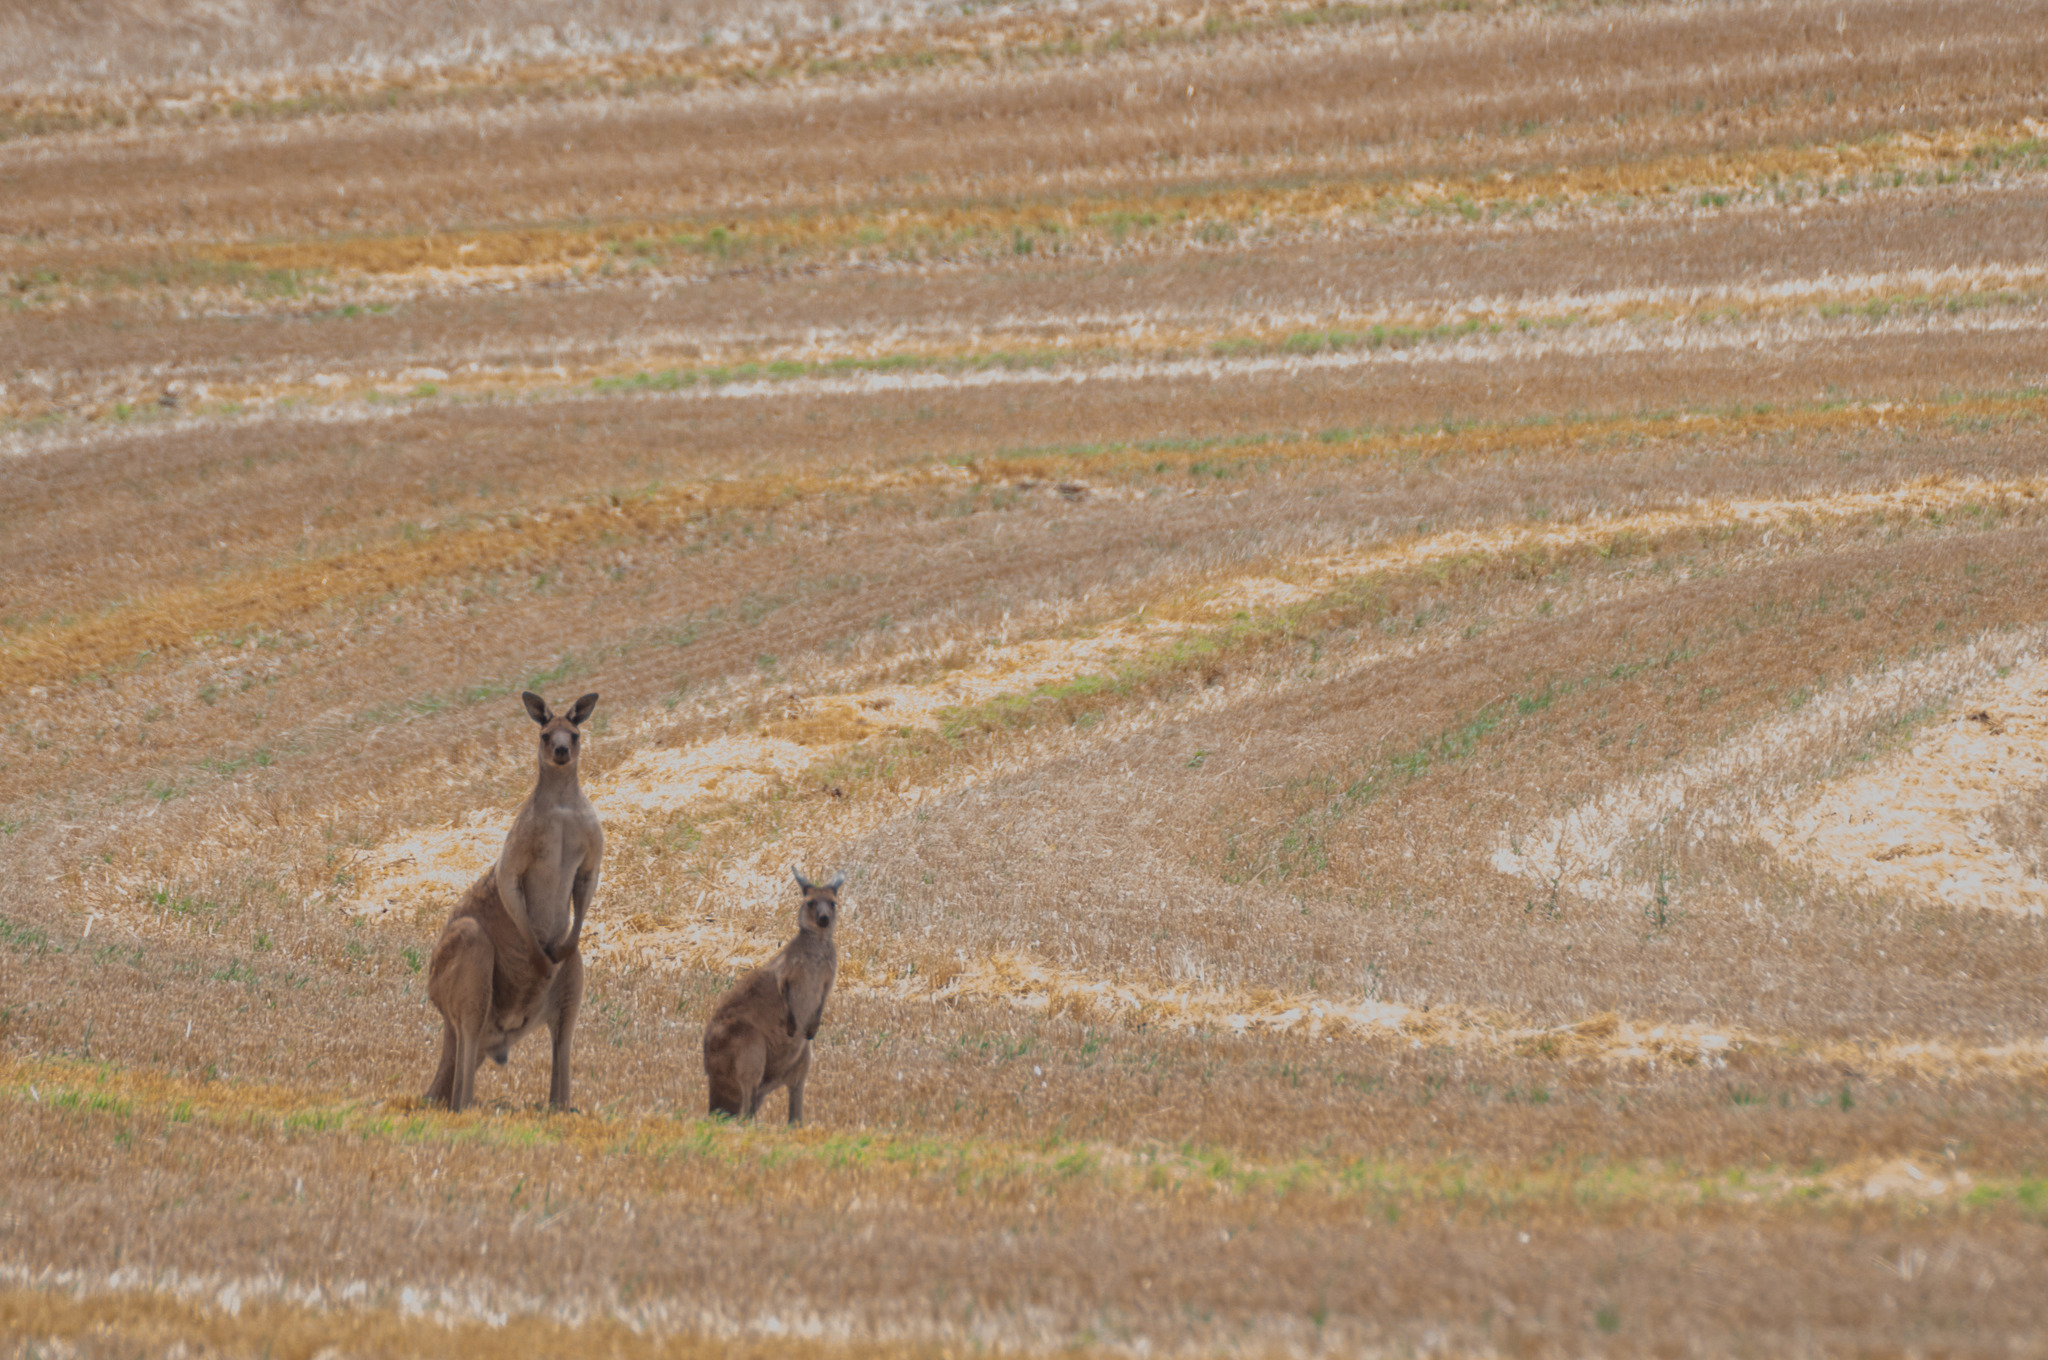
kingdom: Animalia
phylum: Chordata
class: Mammalia
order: Diprotodontia
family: Macropodidae
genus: Macropus
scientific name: Macropus fuliginosus
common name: Western grey kangaroo
